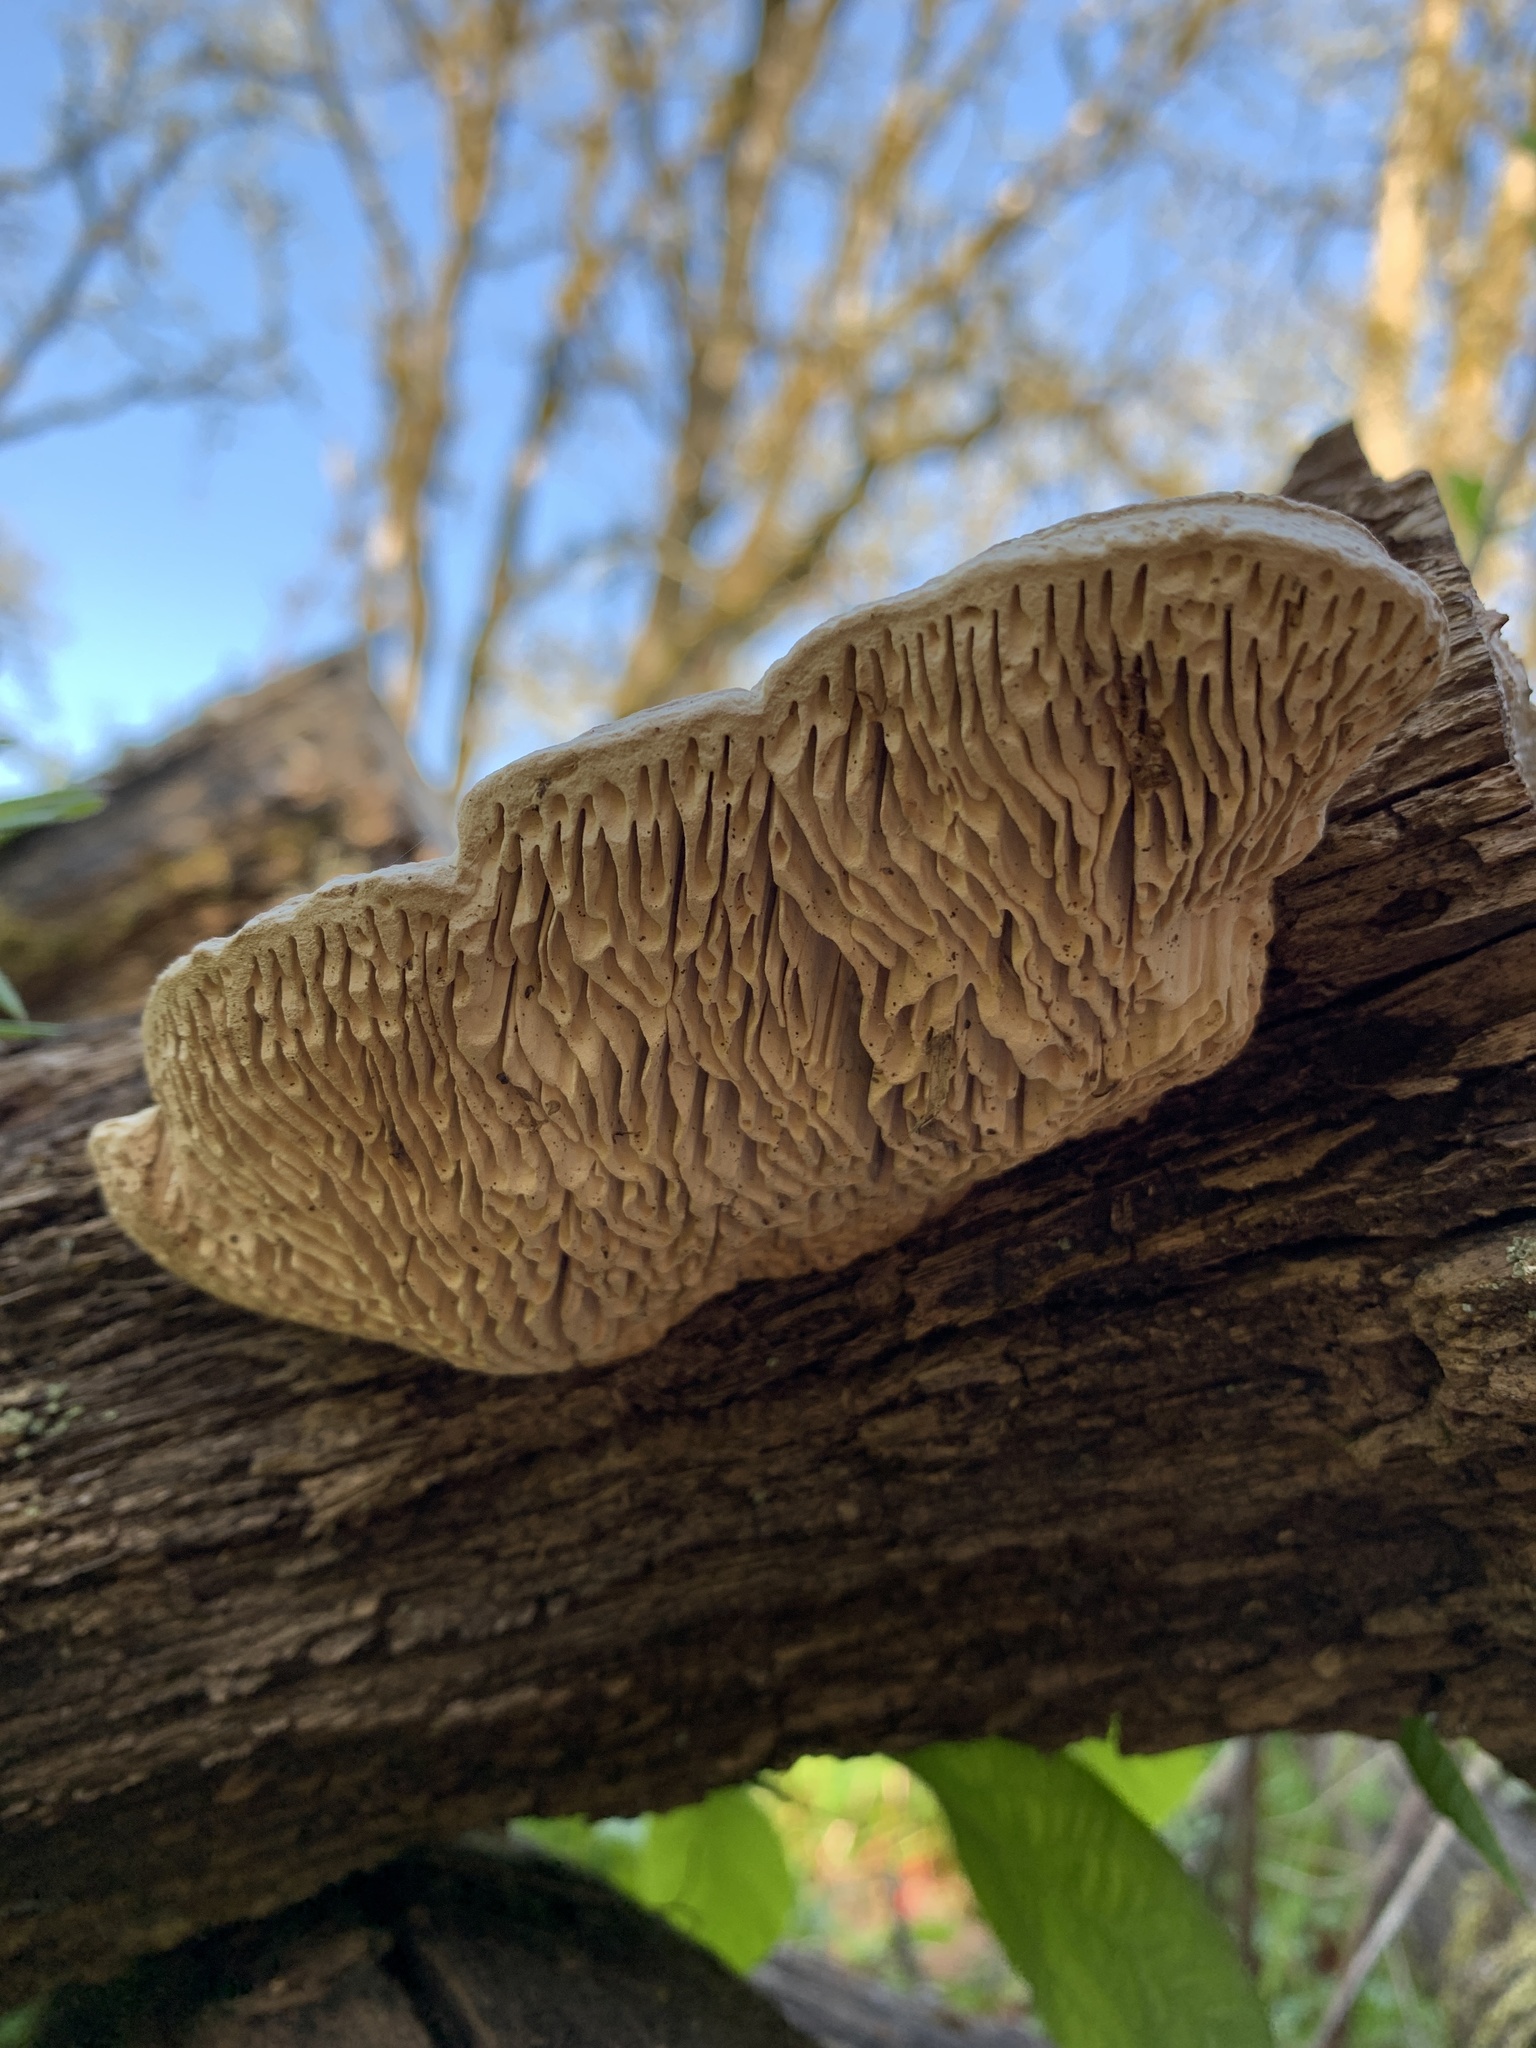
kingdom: Fungi
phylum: Basidiomycota
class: Agaricomycetes
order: Polyporales
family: Fomitopsidaceae
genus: Fomitopsis
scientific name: Fomitopsis
